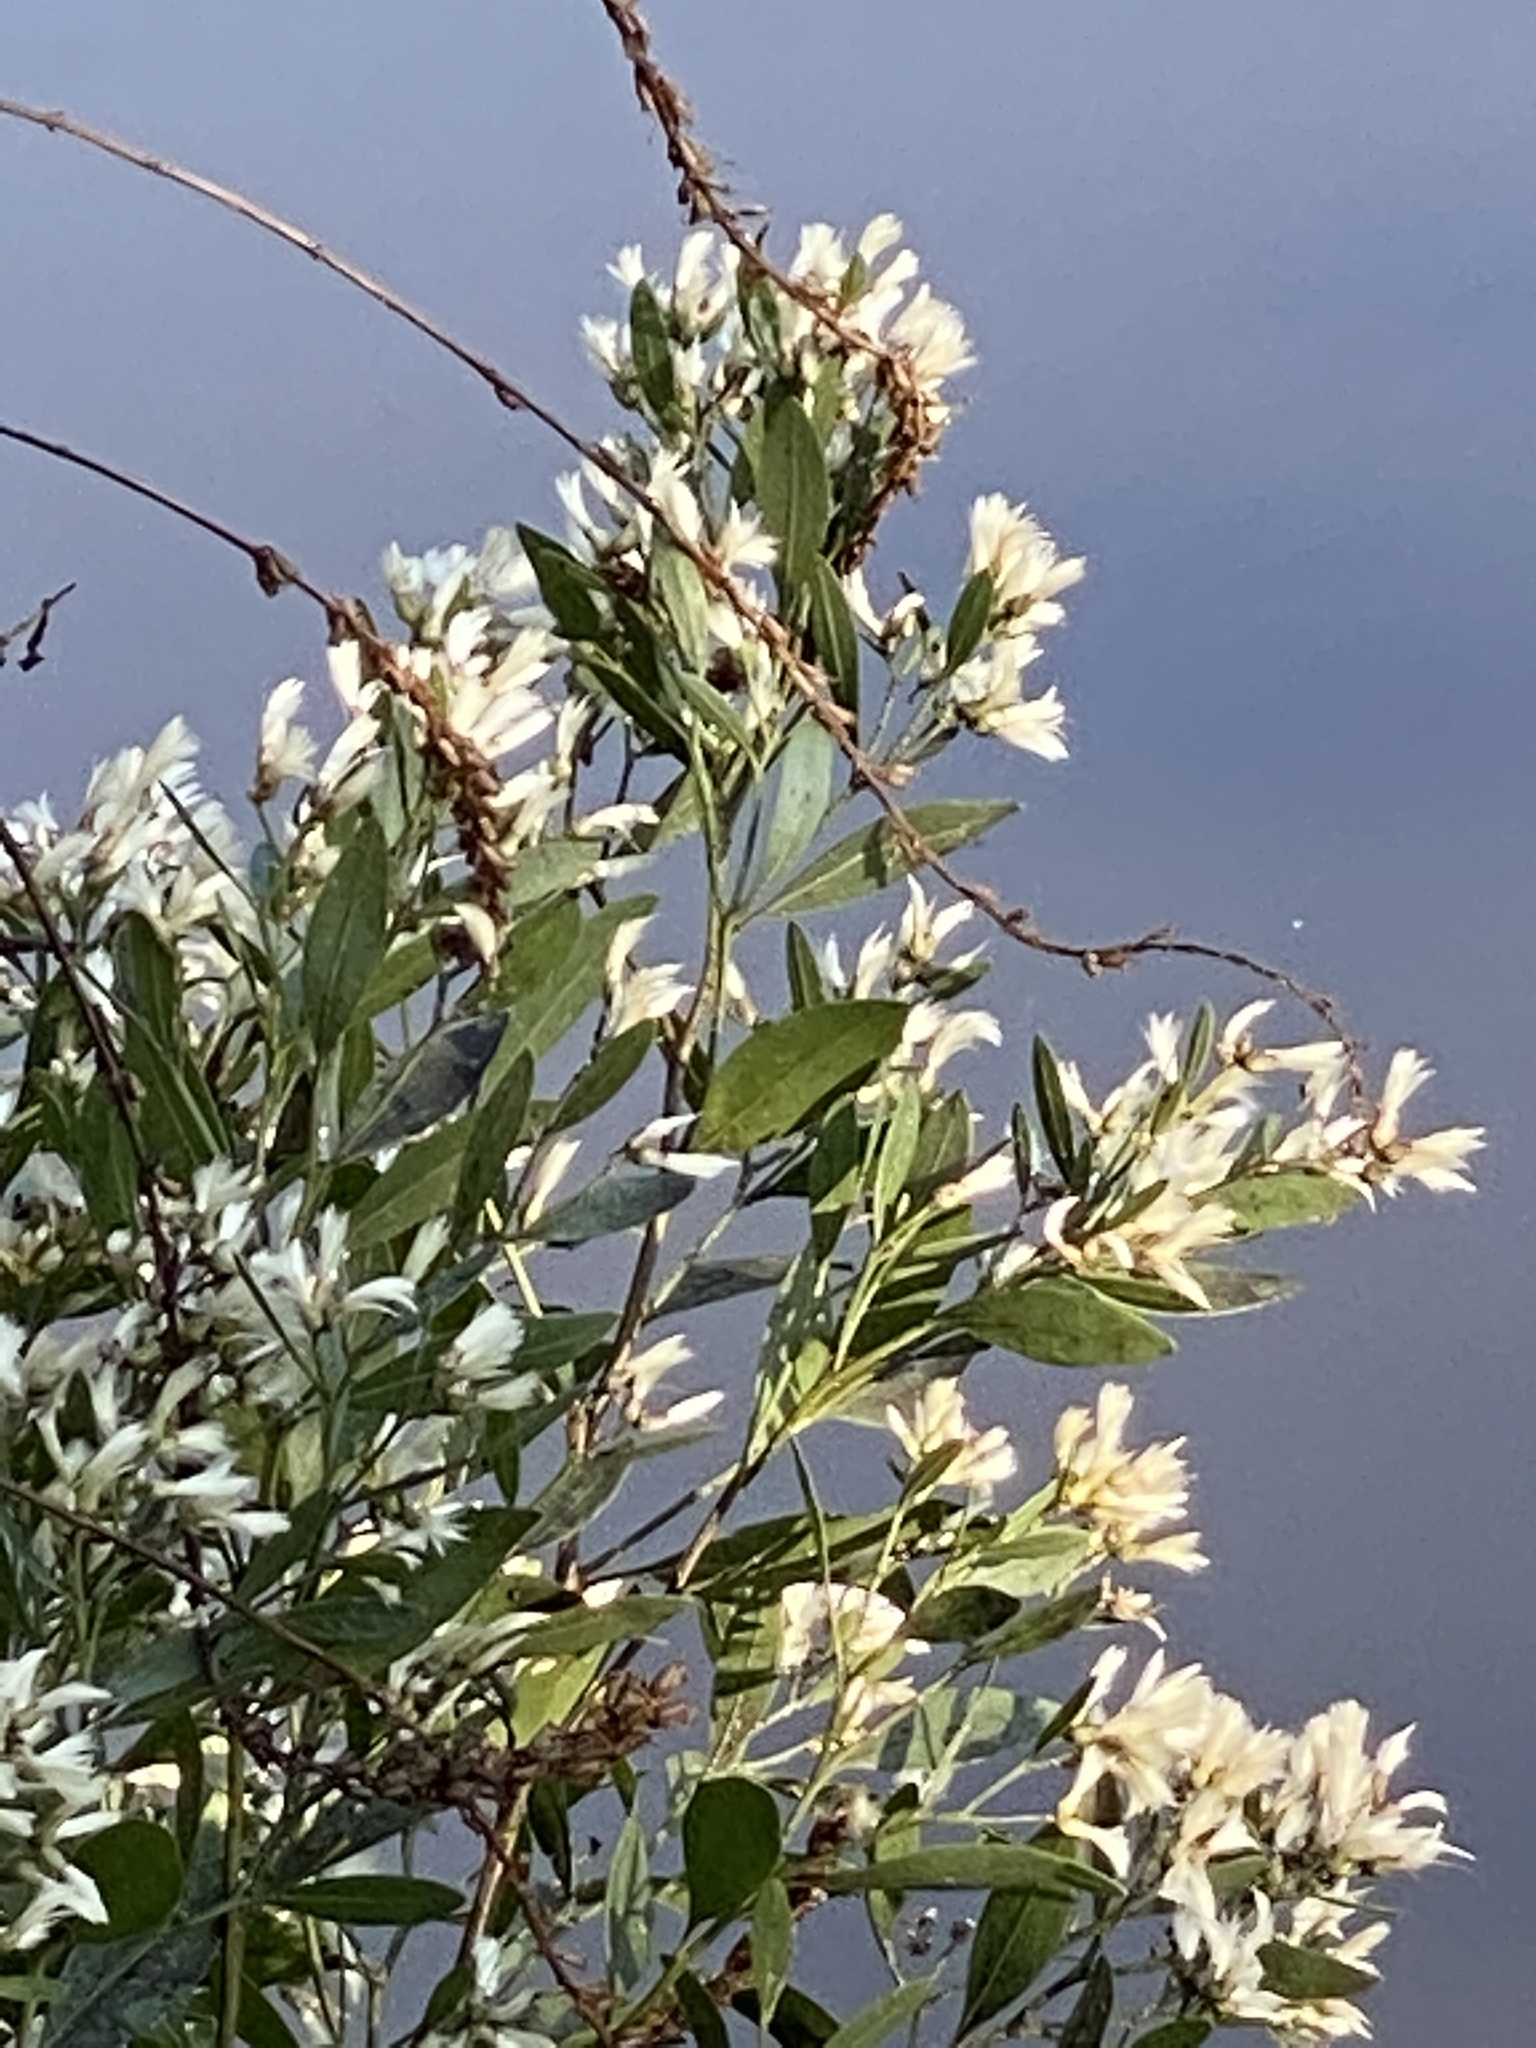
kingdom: Plantae
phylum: Tracheophyta
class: Magnoliopsida
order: Asterales
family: Asteraceae
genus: Baccharis
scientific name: Baccharis halimifolia
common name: Eastern baccharis
